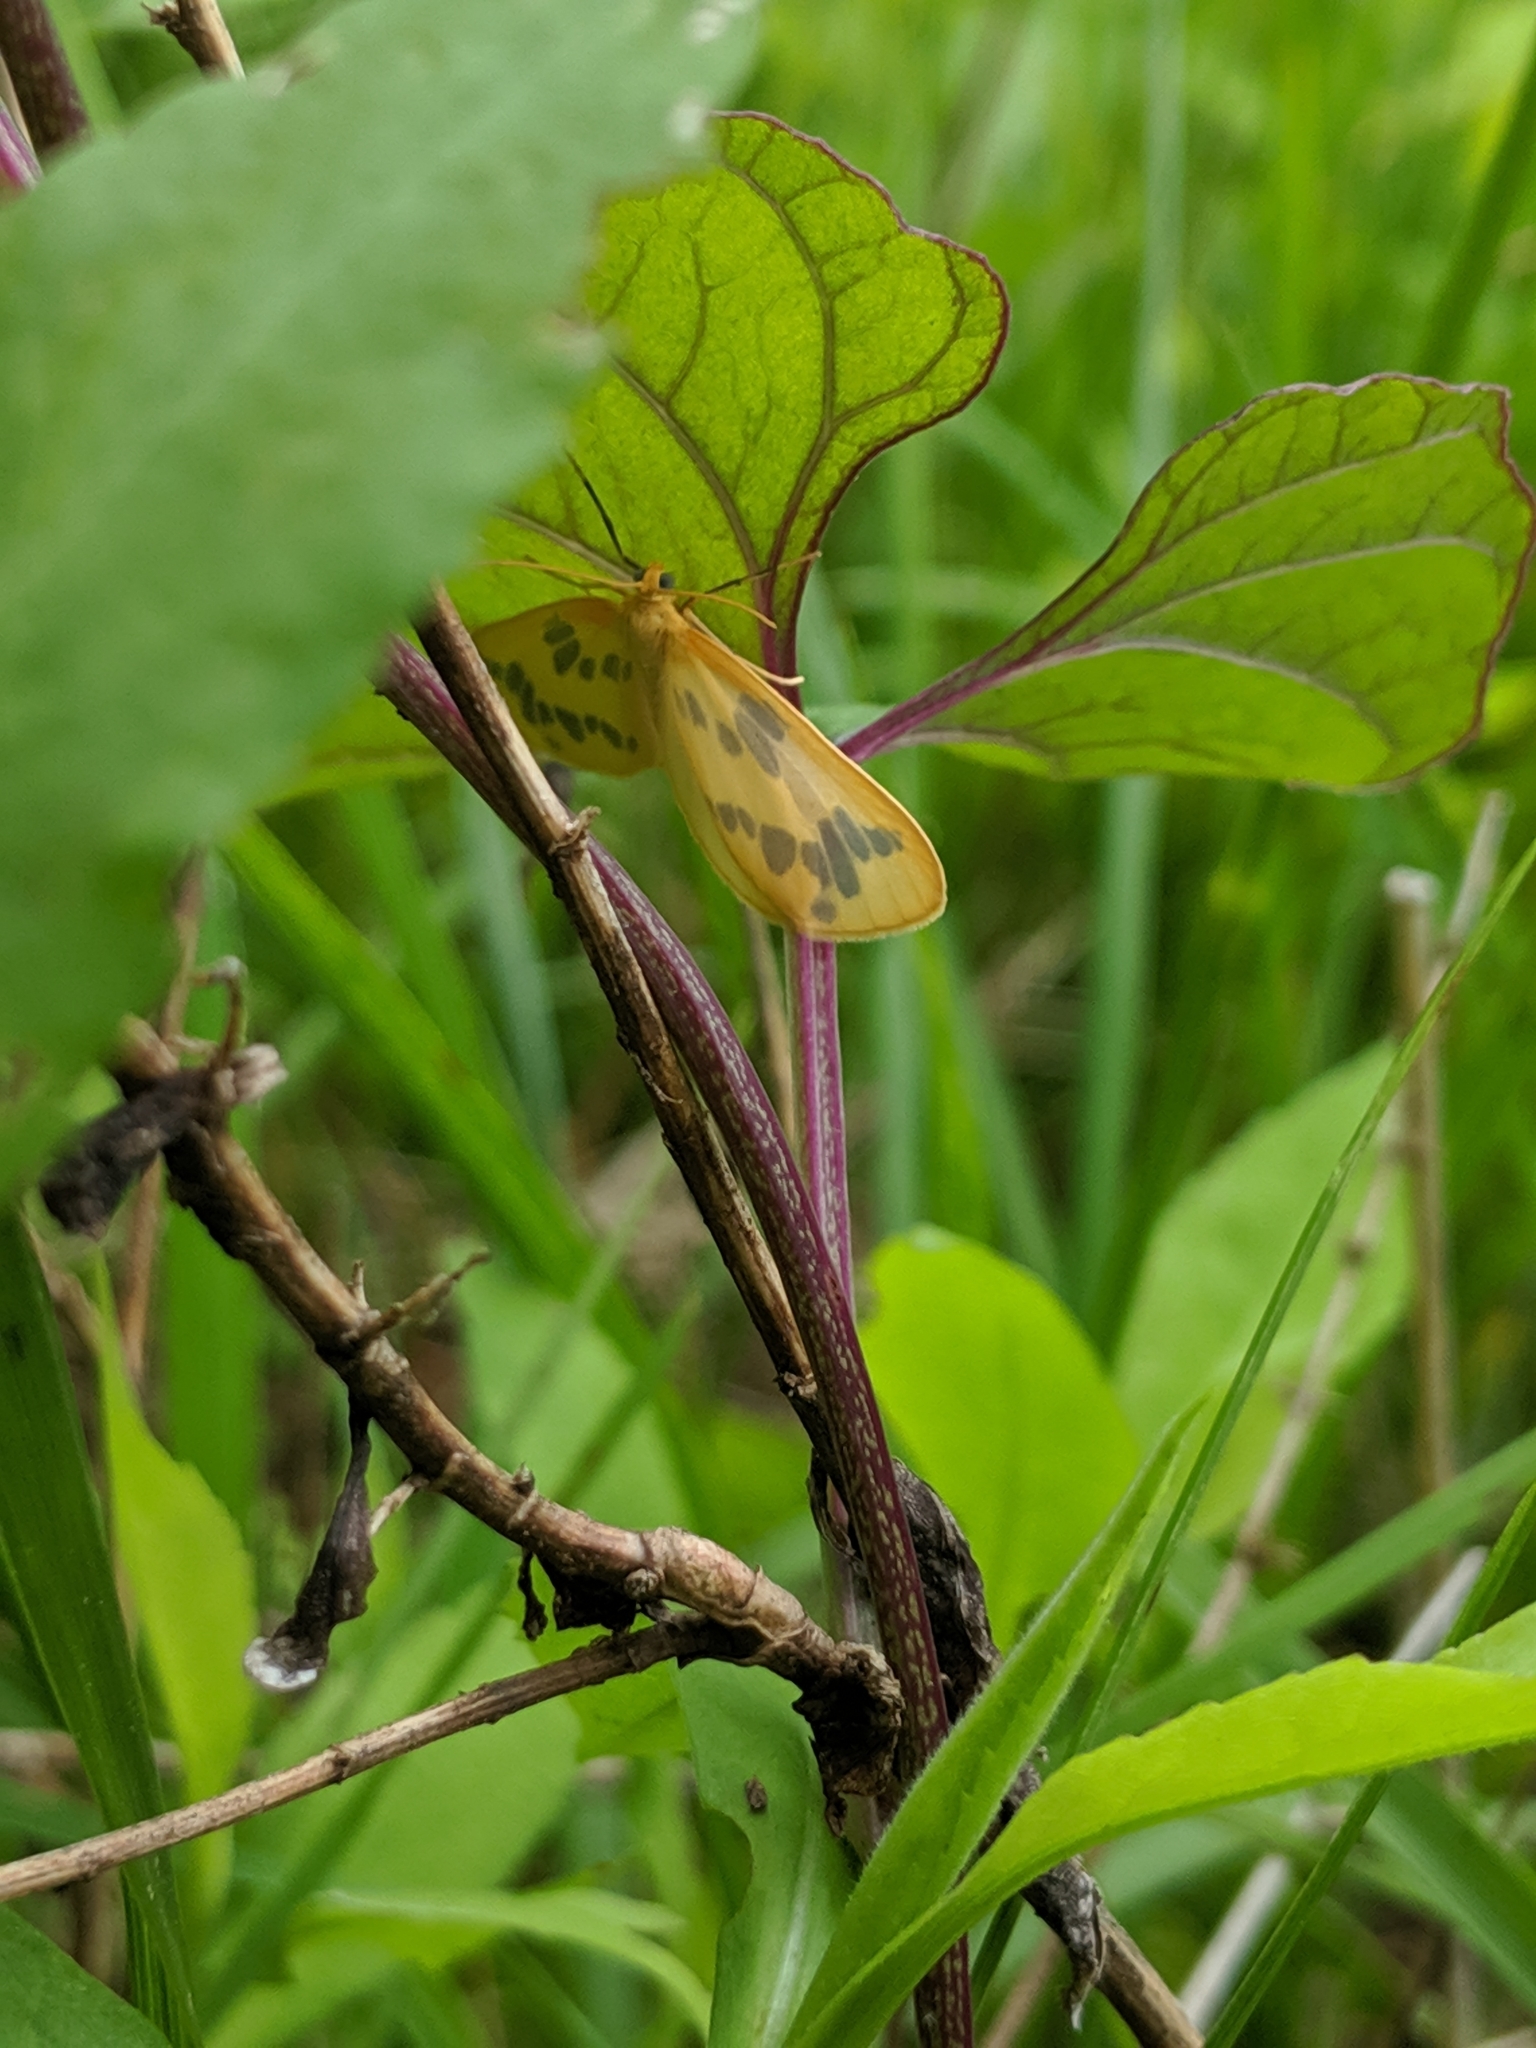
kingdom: Animalia
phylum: Arthropoda
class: Insecta
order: Lepidoptera
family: Geometridae
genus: Eubaphe
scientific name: Eubaphe mendica
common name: Beggar
